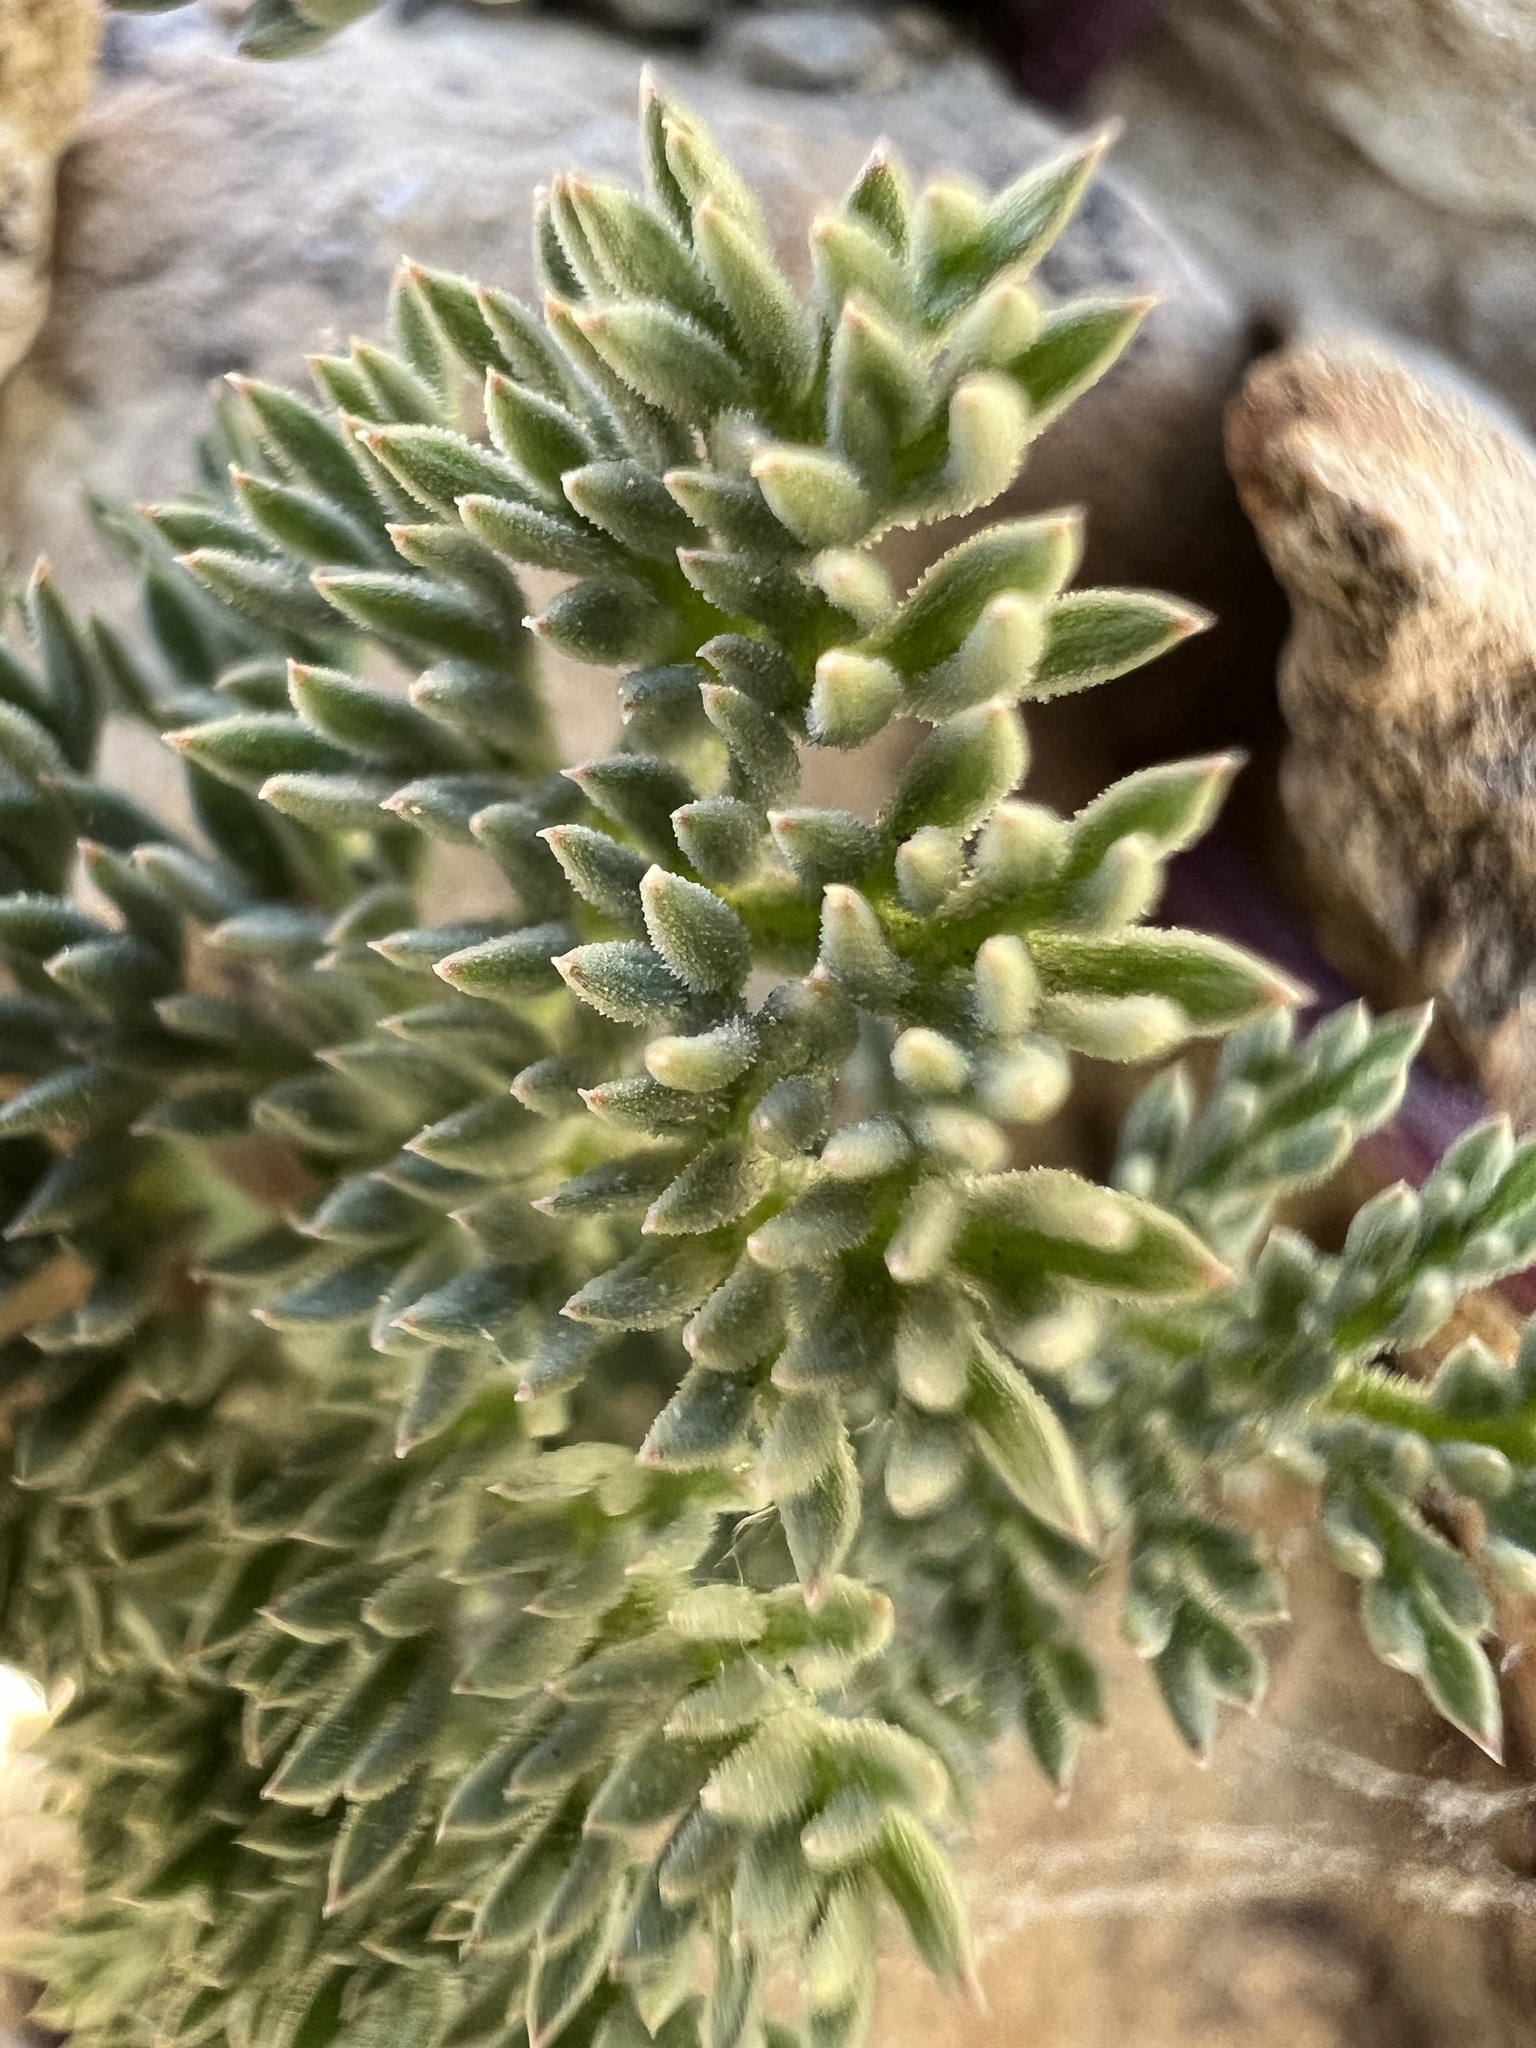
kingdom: Plantae
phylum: Tracheophyta
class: Magnoliopsida
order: Apiales
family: Apiaceae
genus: Aulospermum
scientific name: Aulospermum cinerarium
